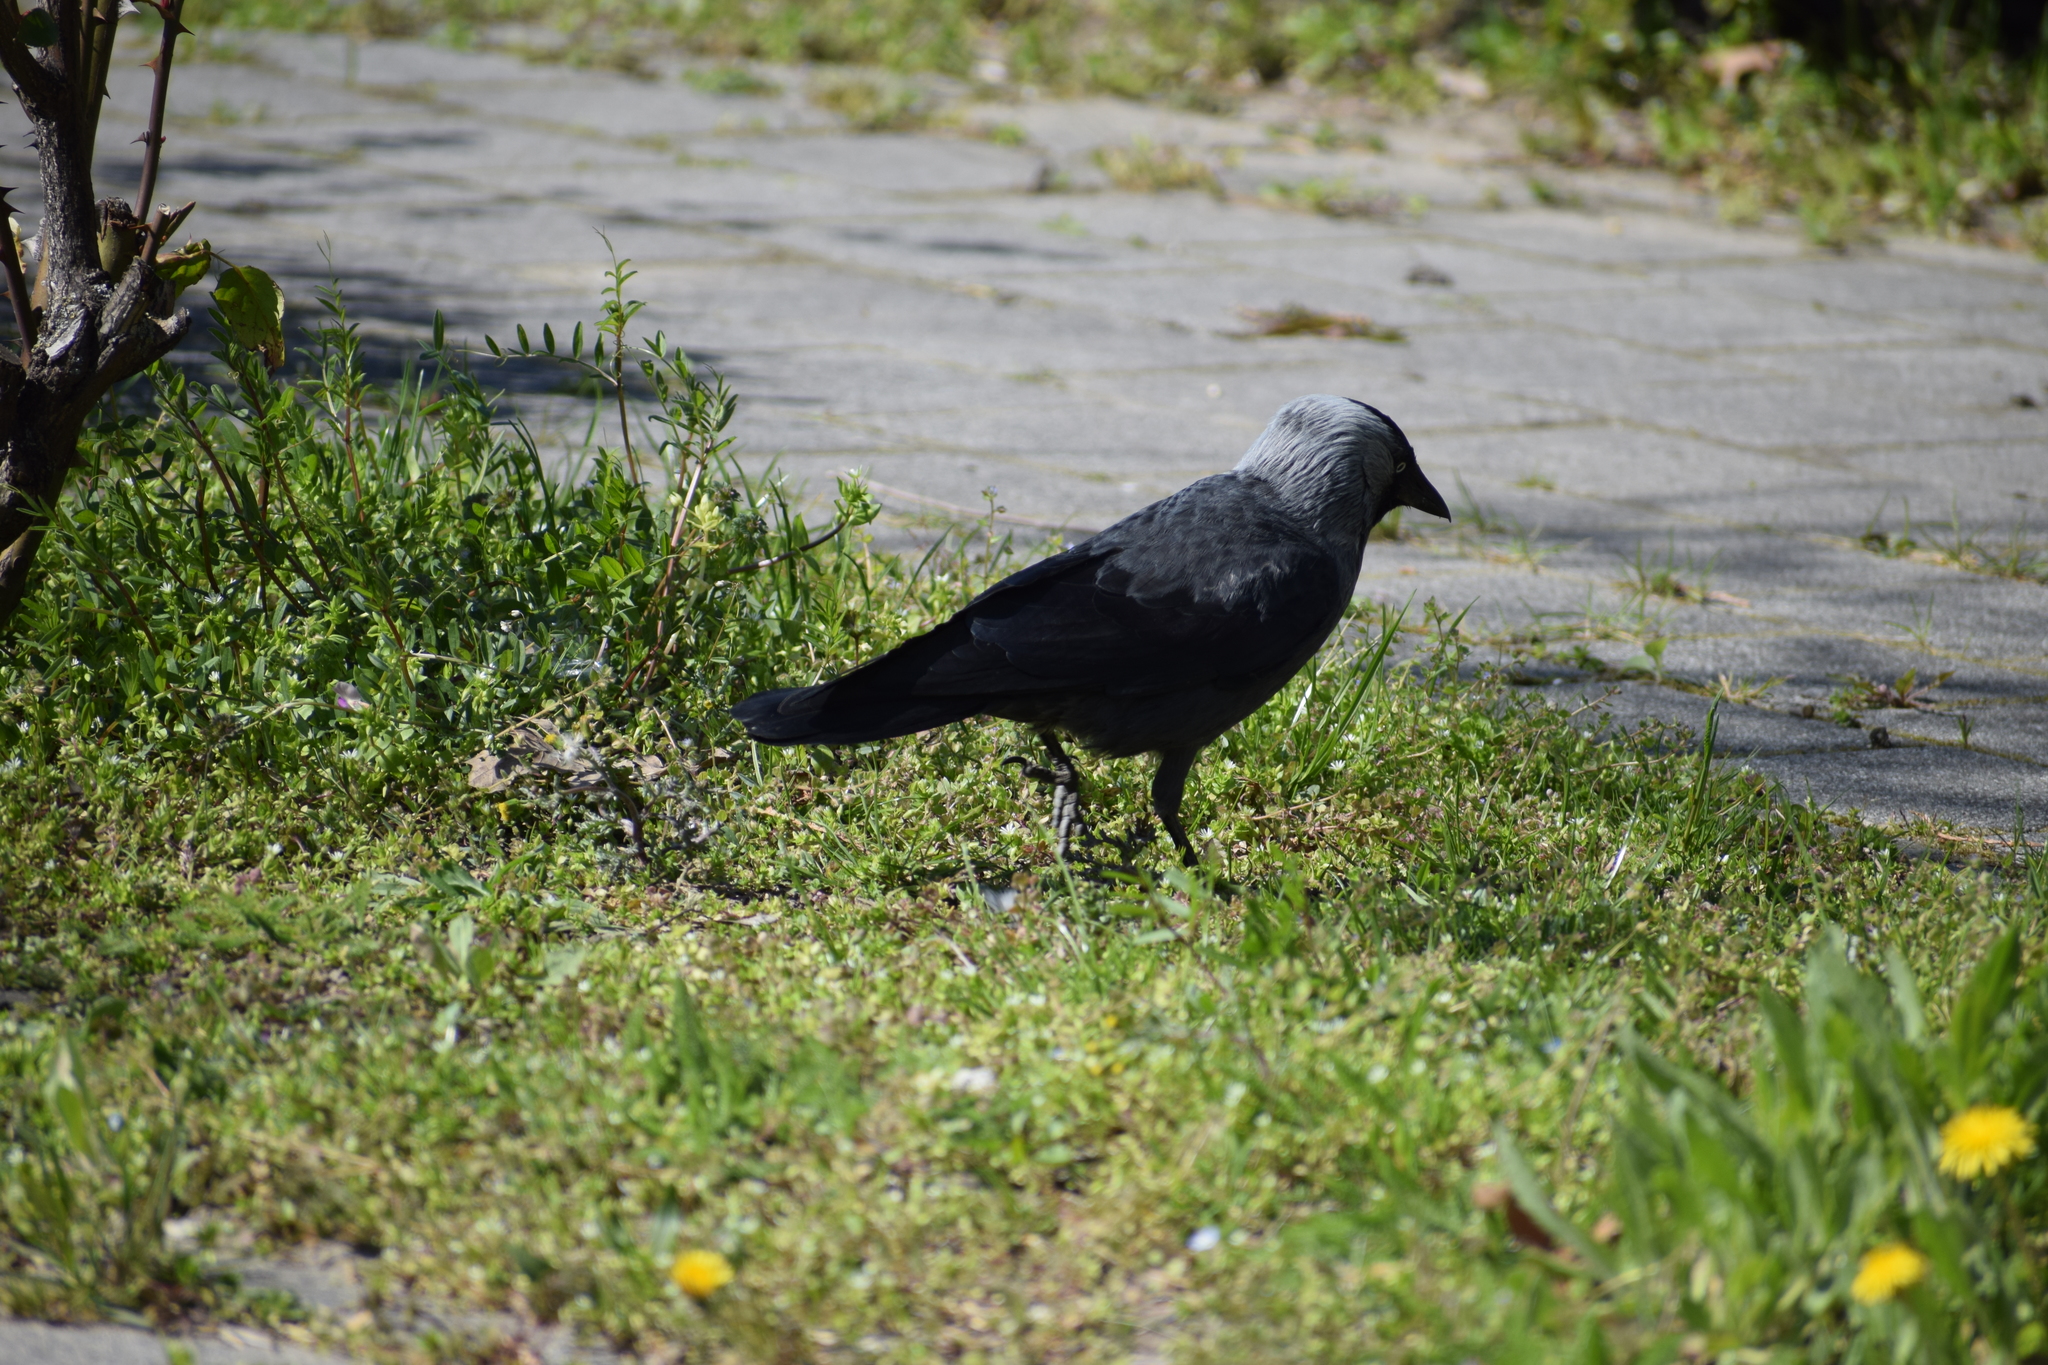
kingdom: Animalia
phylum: Chordata
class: Aves
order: Passeriformes
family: Corvidae
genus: Coloeus
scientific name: Coloeus monedula
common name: Western jackdaw
